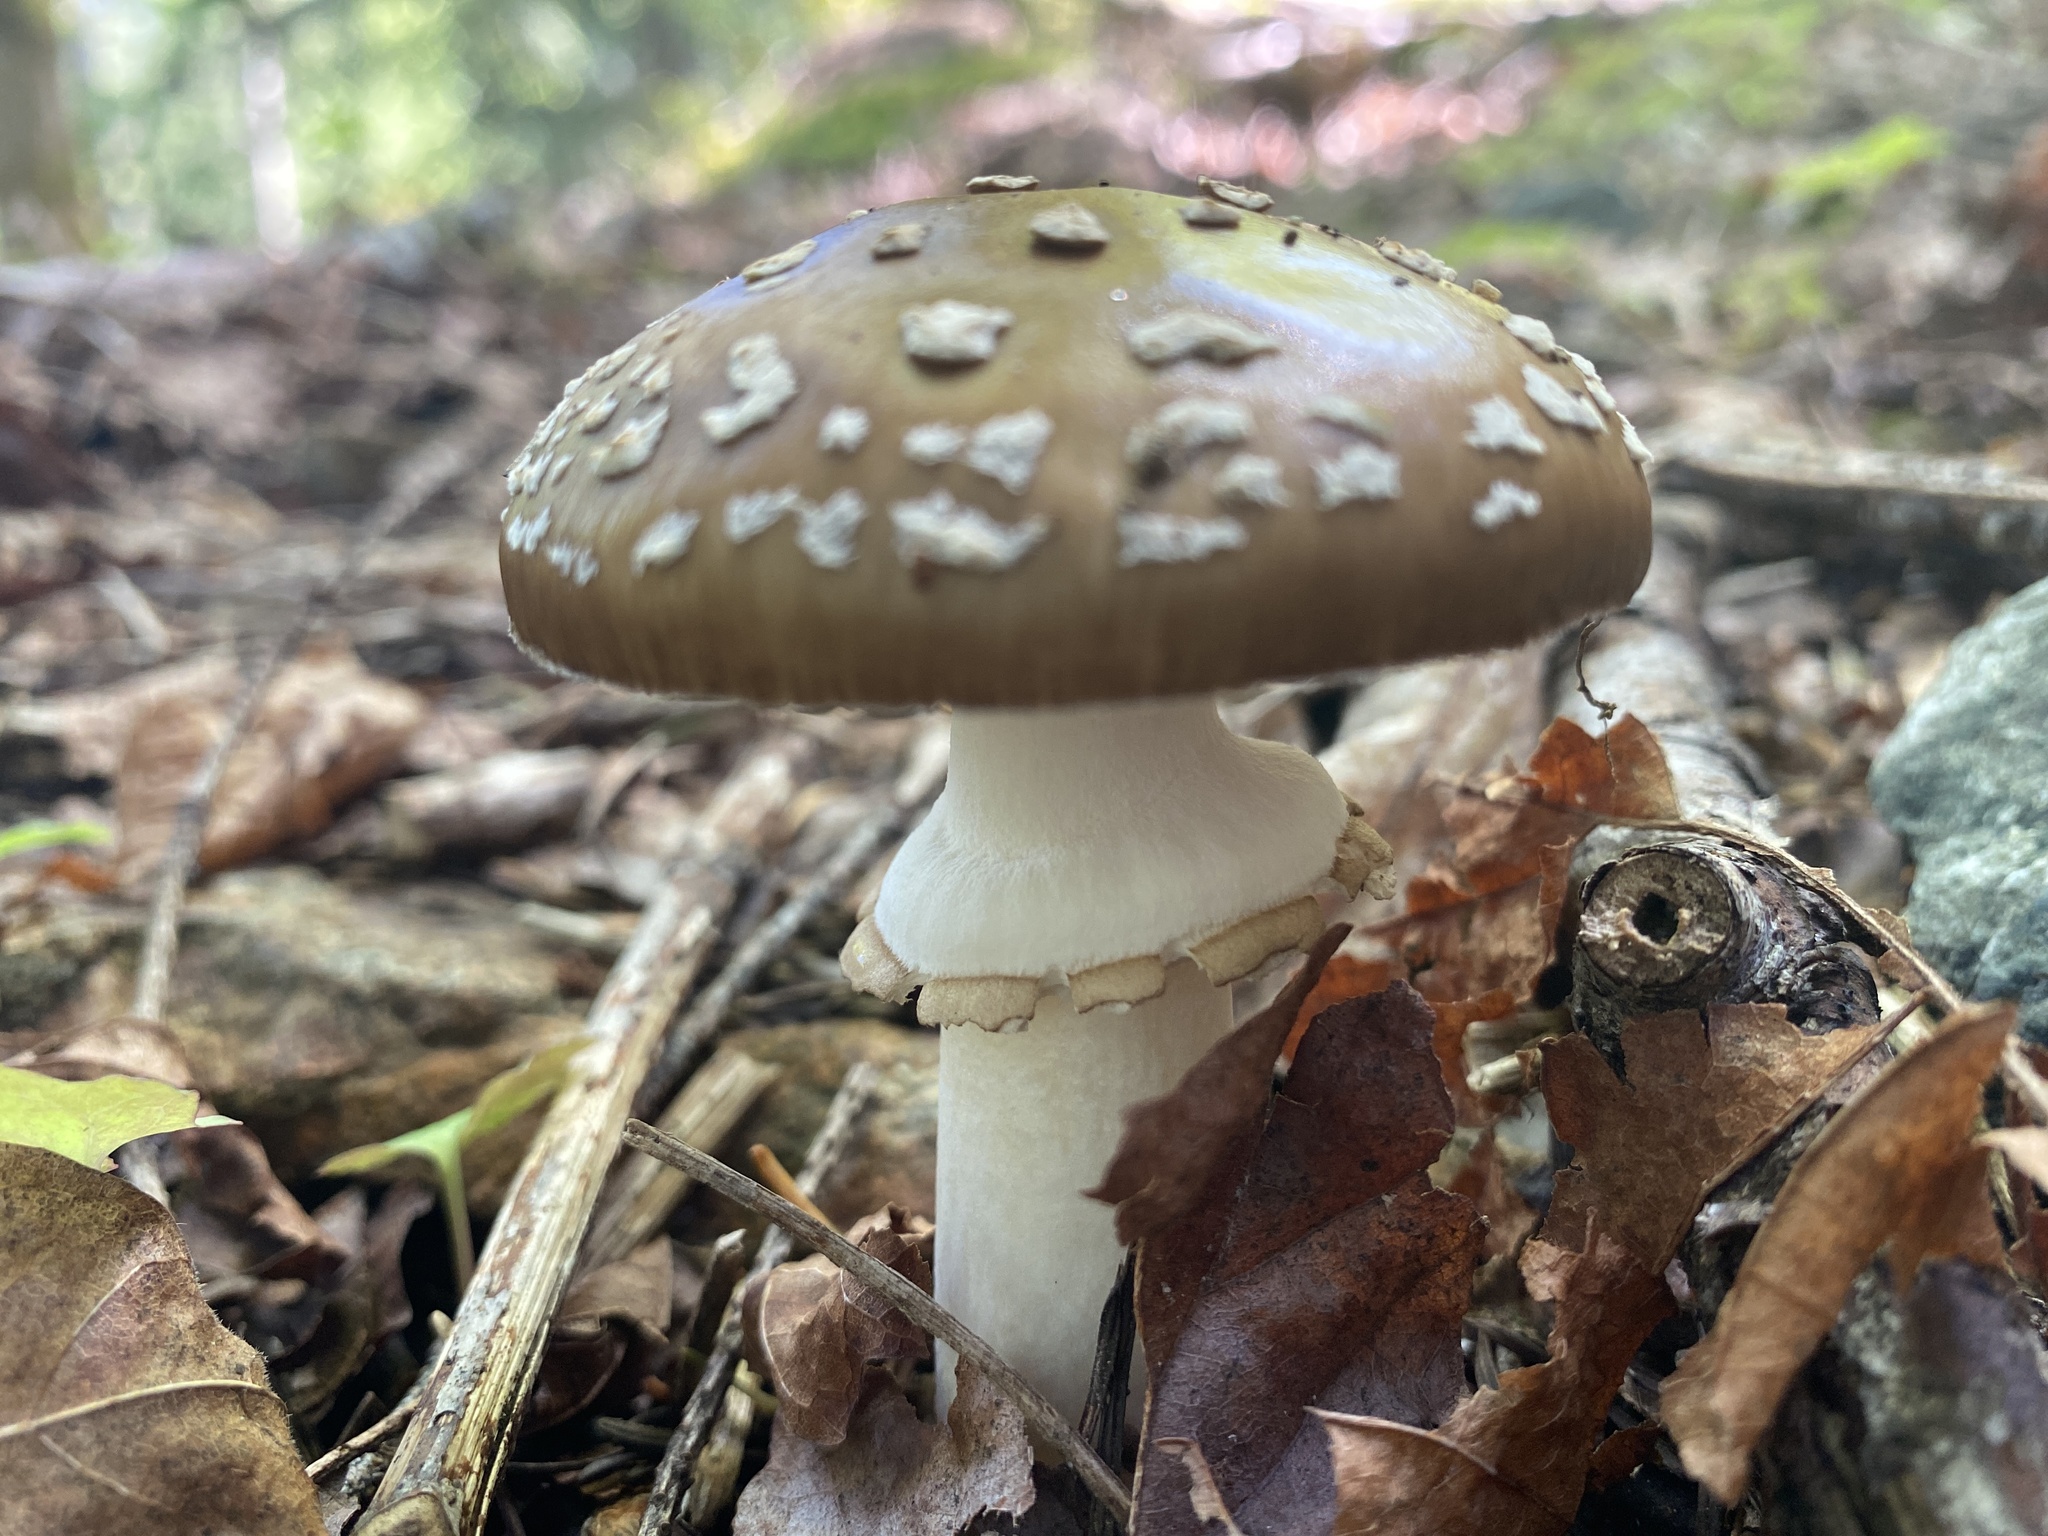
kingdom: Fungi
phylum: Basidiomycota
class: Agaricomycetes
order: Agaricales
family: Amanitaceae
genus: Amanita
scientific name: Amanita pantherina
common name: Panthercap
